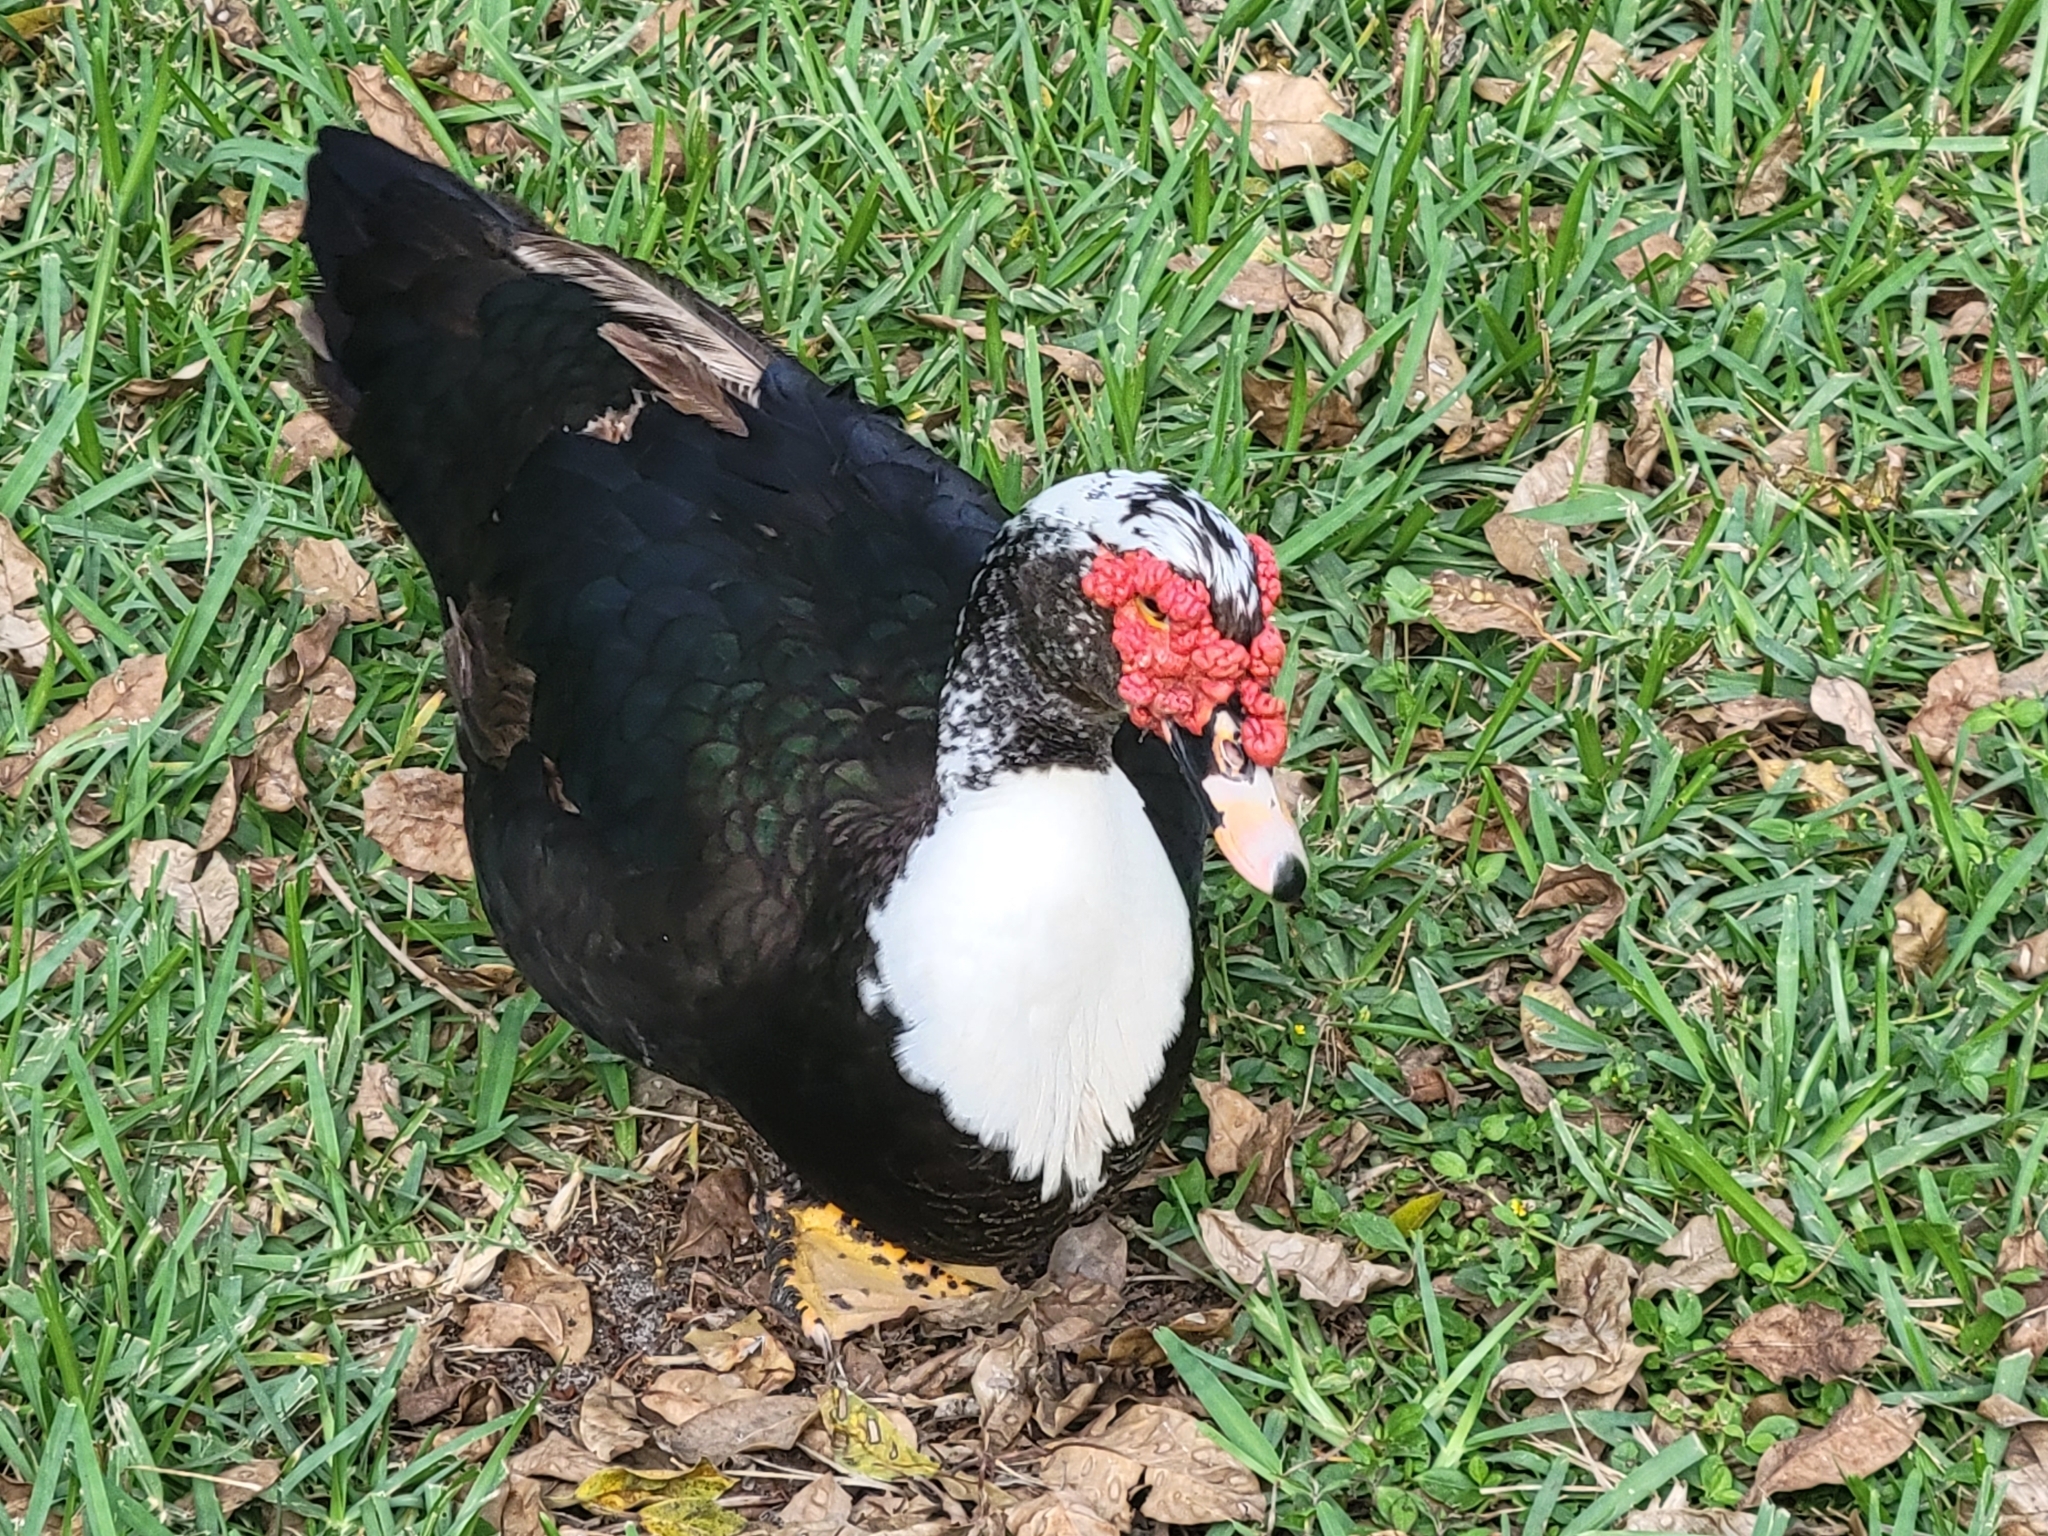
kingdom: Animalia
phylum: Chordata
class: Aves
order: Anseriformes
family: Anatidae
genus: Cairina
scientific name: Cairina moschata
